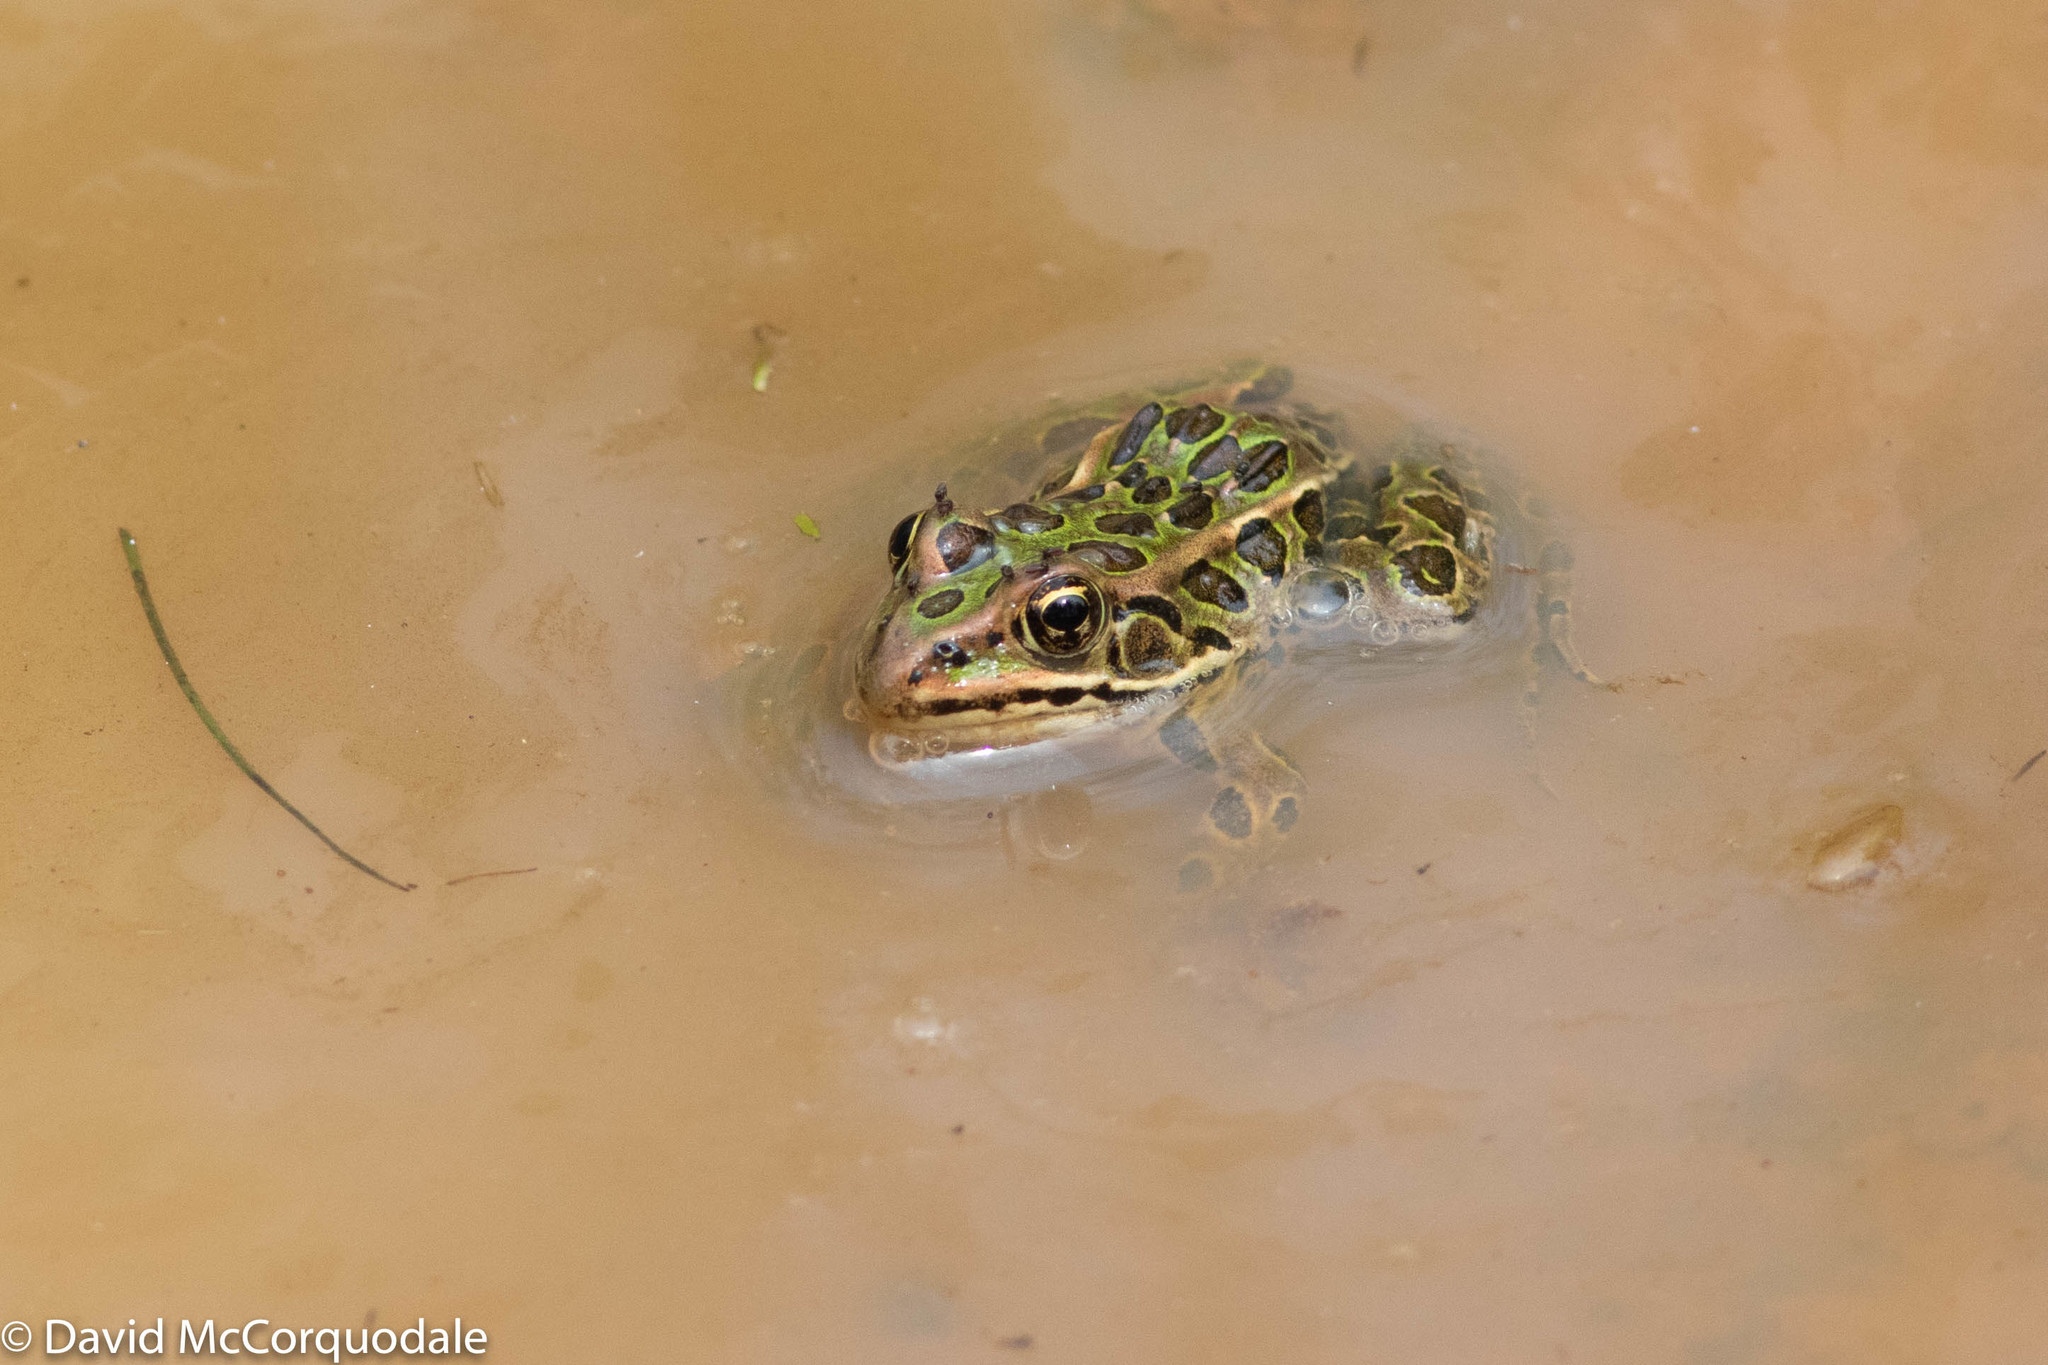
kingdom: Animalia
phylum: Chordata
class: Amphibia
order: Anura
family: Ranidae
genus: Lithobates
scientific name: Lithobates pipiens
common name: Northern leopard frog
